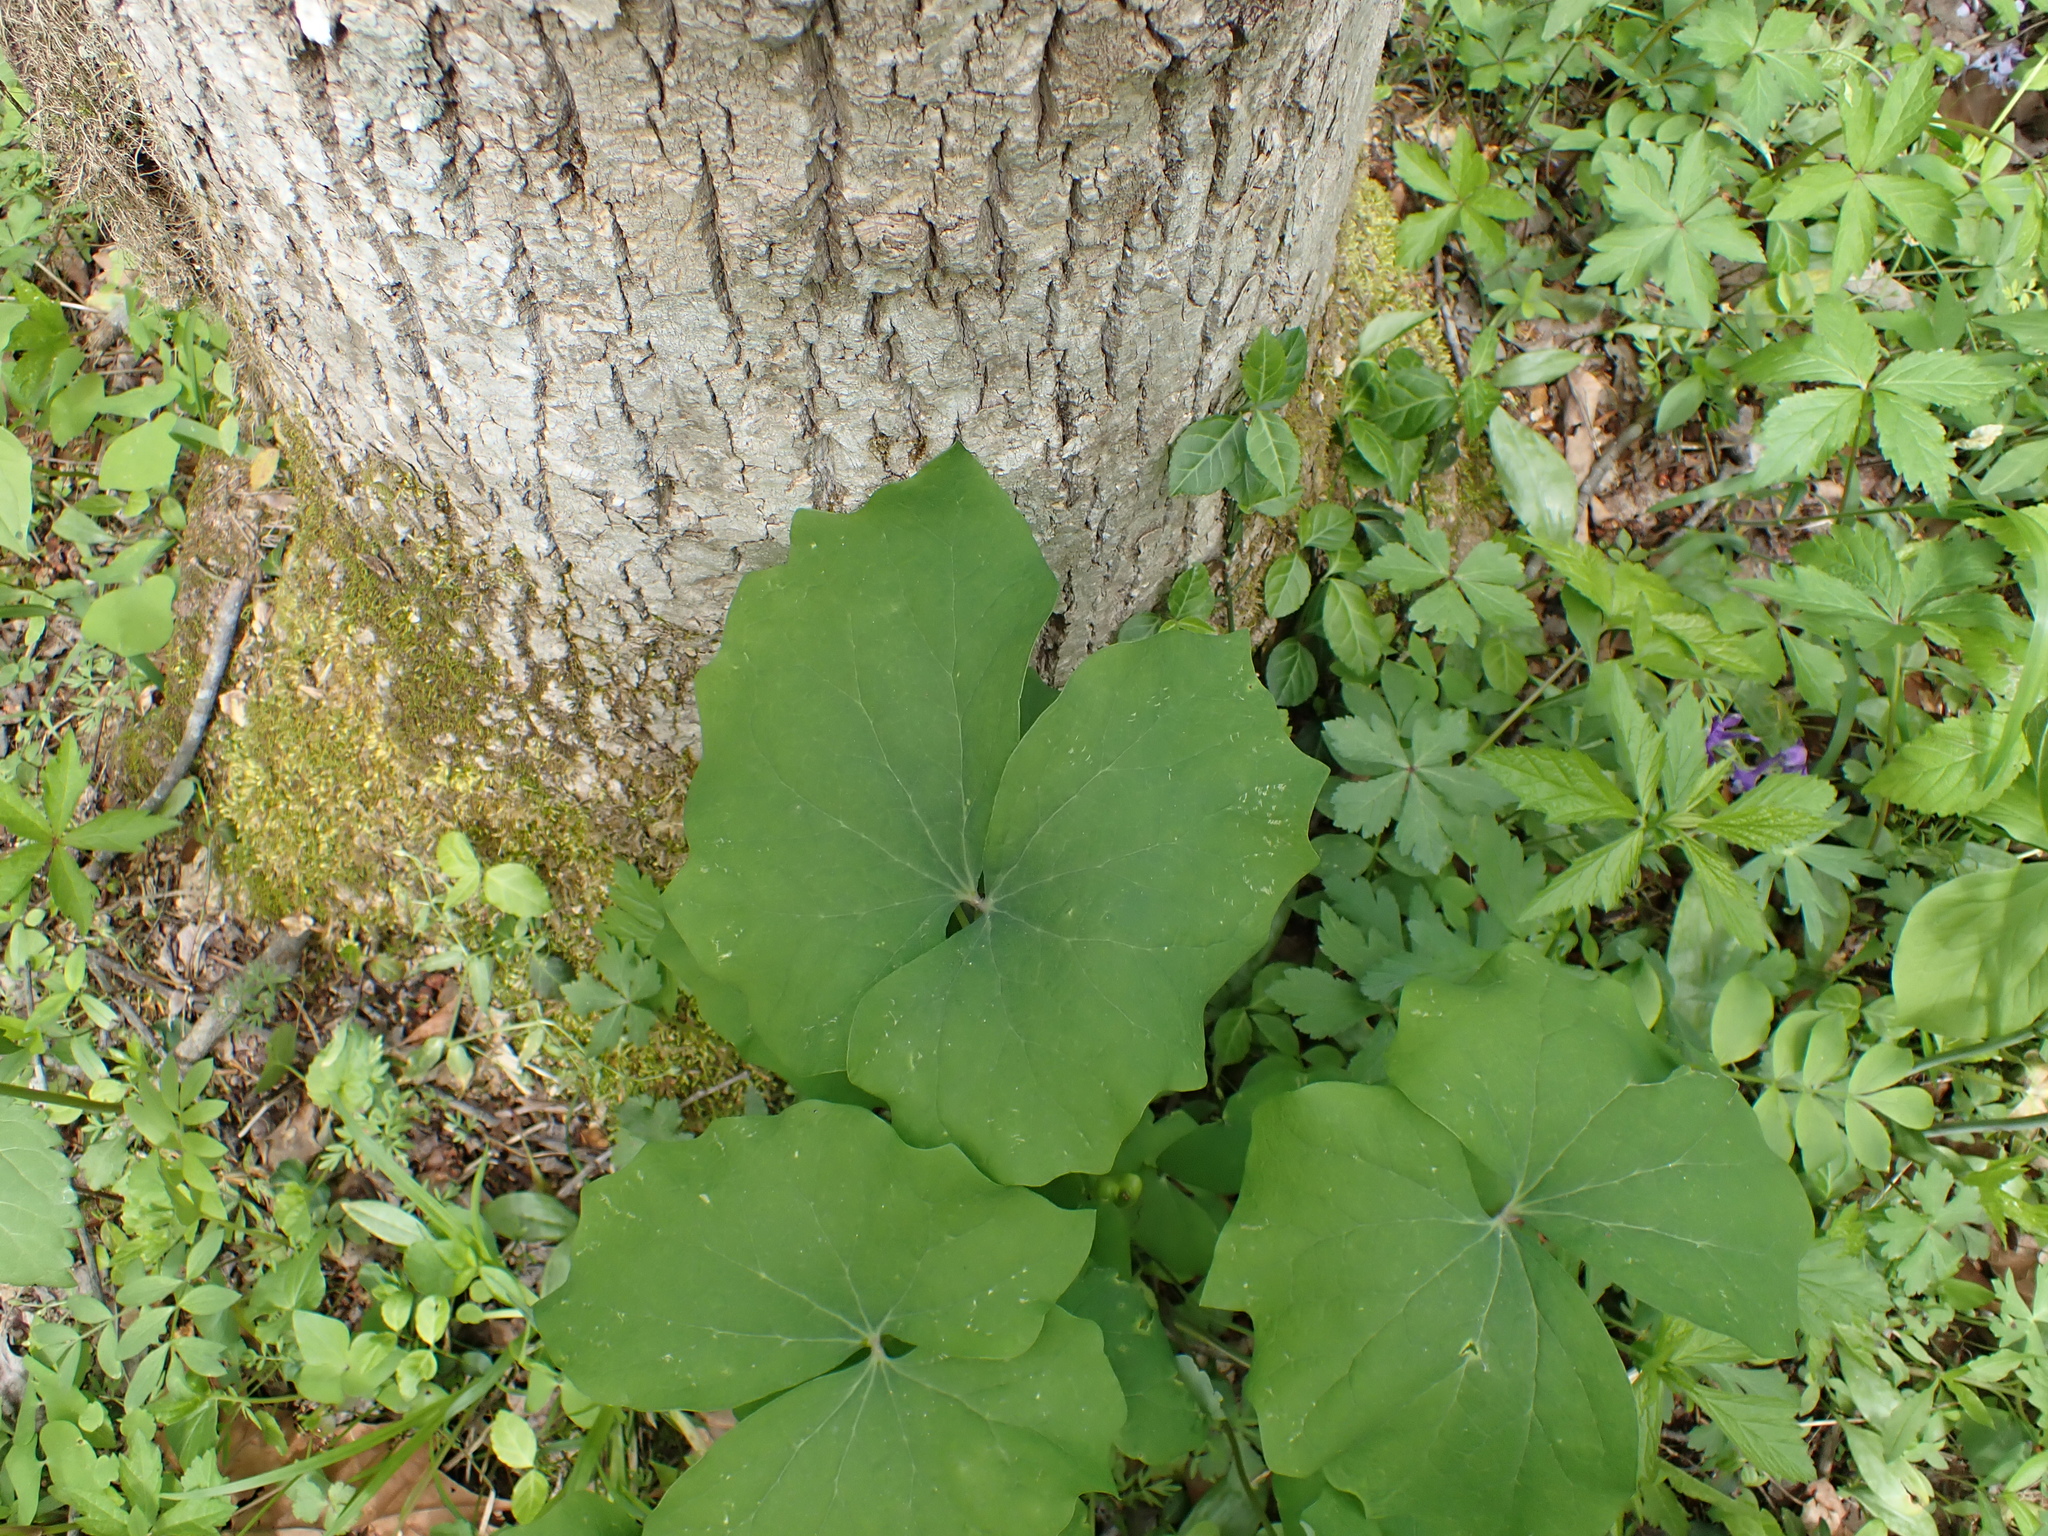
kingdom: Plantae
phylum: Tracheophyta
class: Magnoliopsida
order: Ranunculales
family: Berberidaceae
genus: Jeffersonia
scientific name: Jeffersonia diphylla
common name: Rheumatism-root
